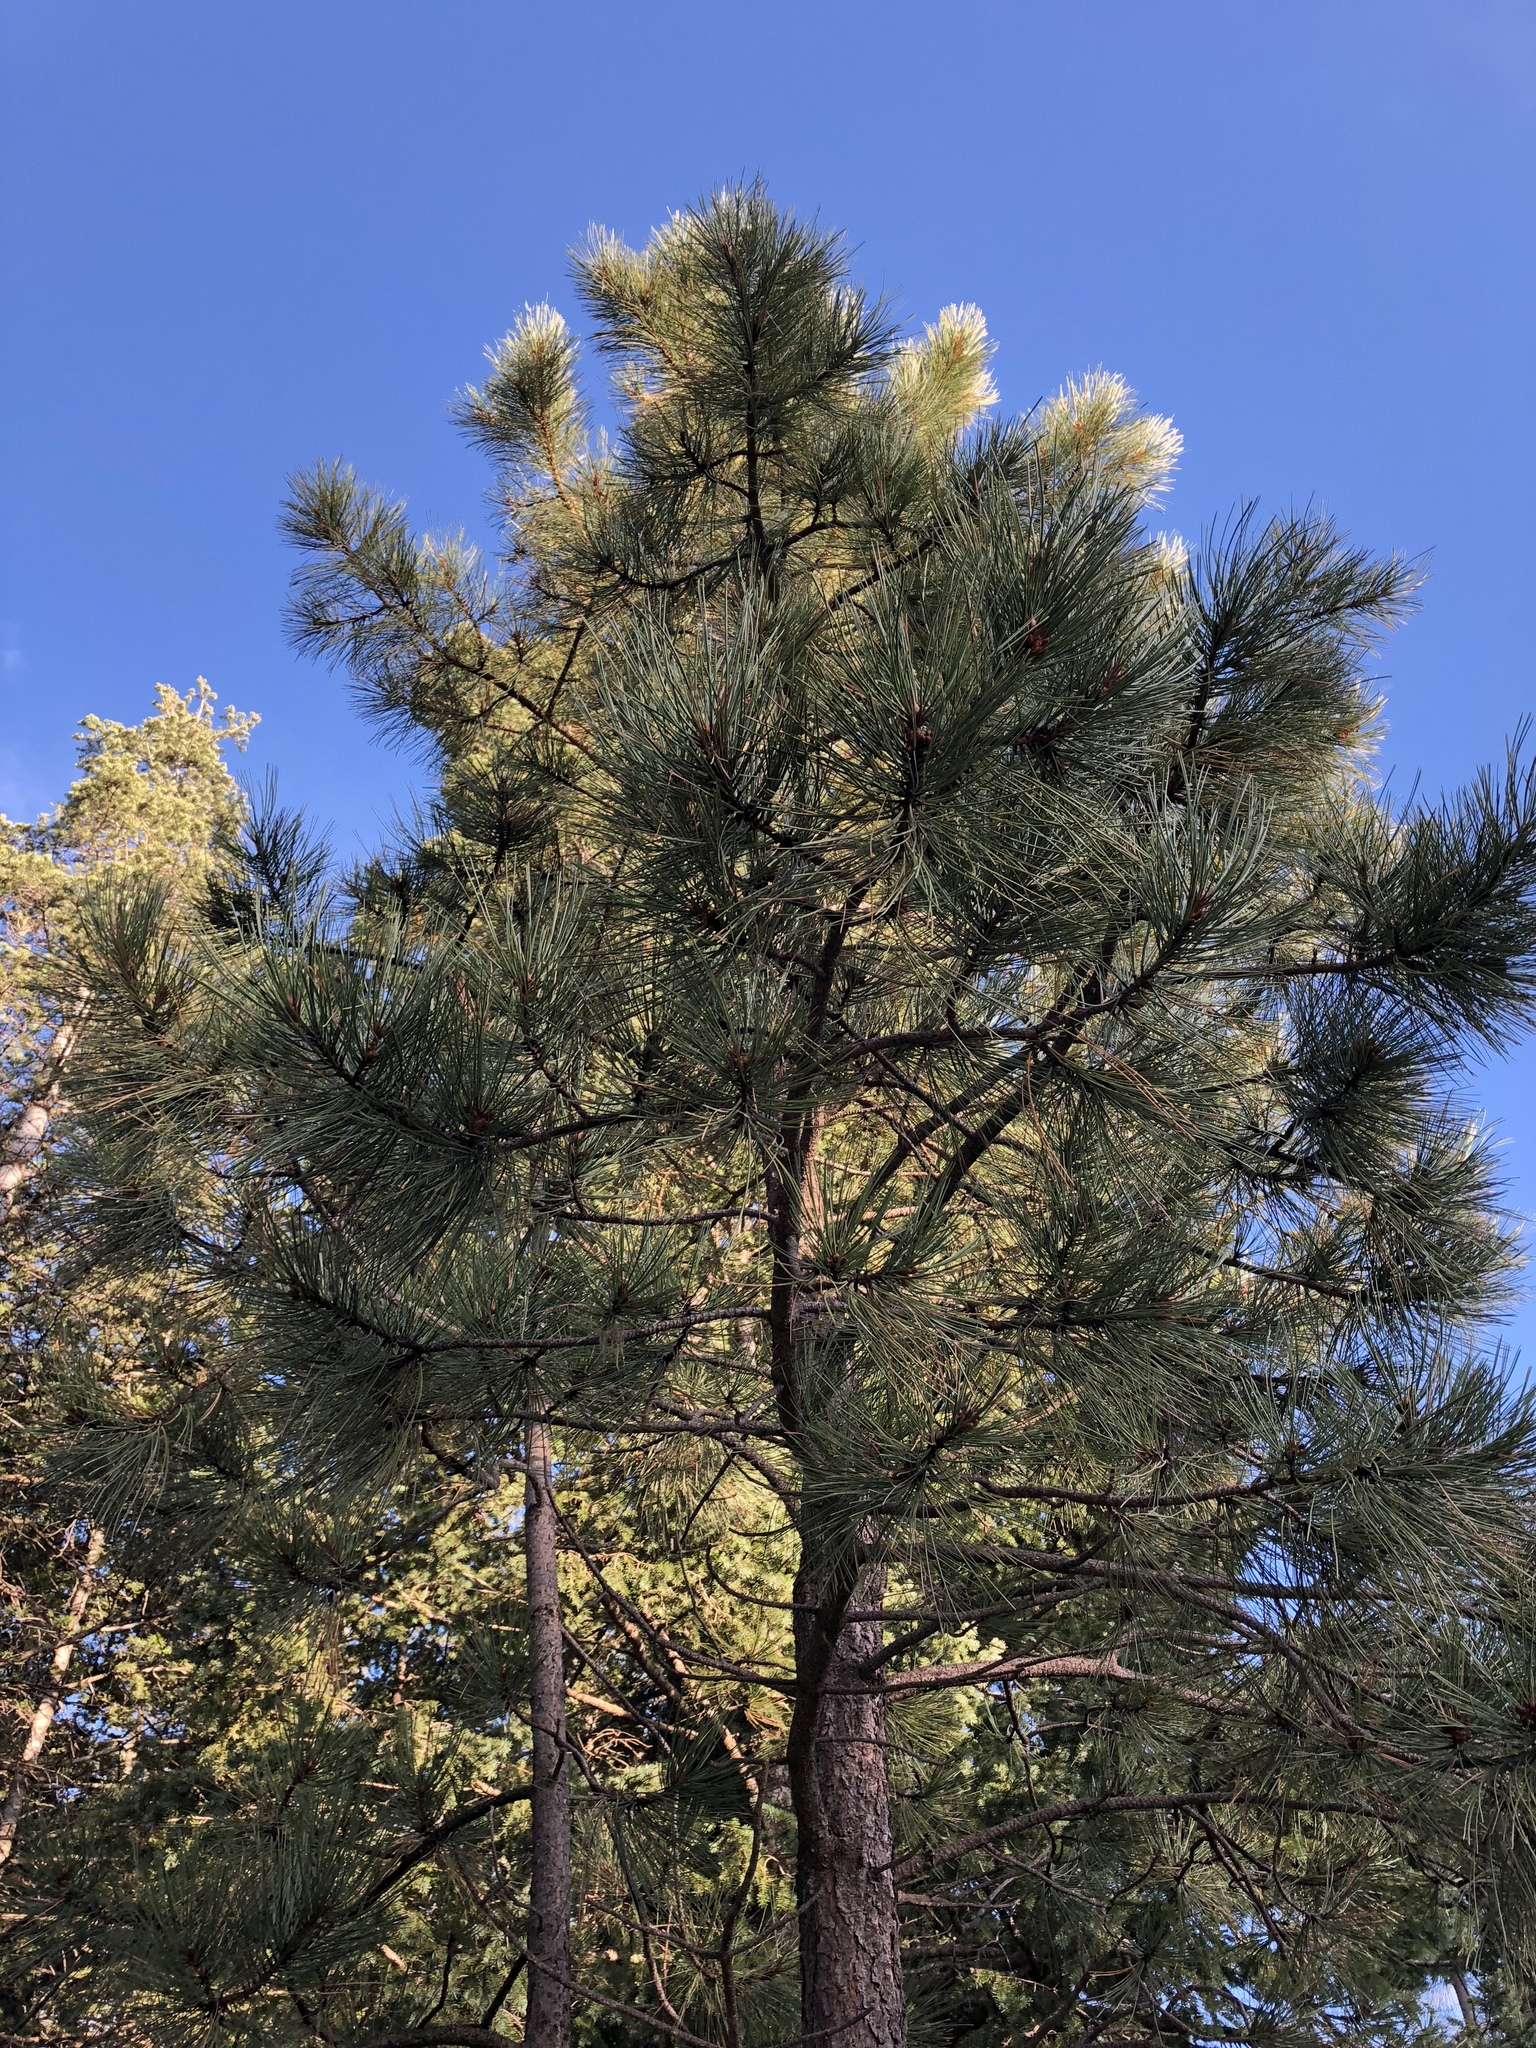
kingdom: Plantae
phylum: Tracheophyta
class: Pinopsida
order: Pinales
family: Pinaceae
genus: Pinus
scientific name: Pinus ponderosa
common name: Western yellow-pine
